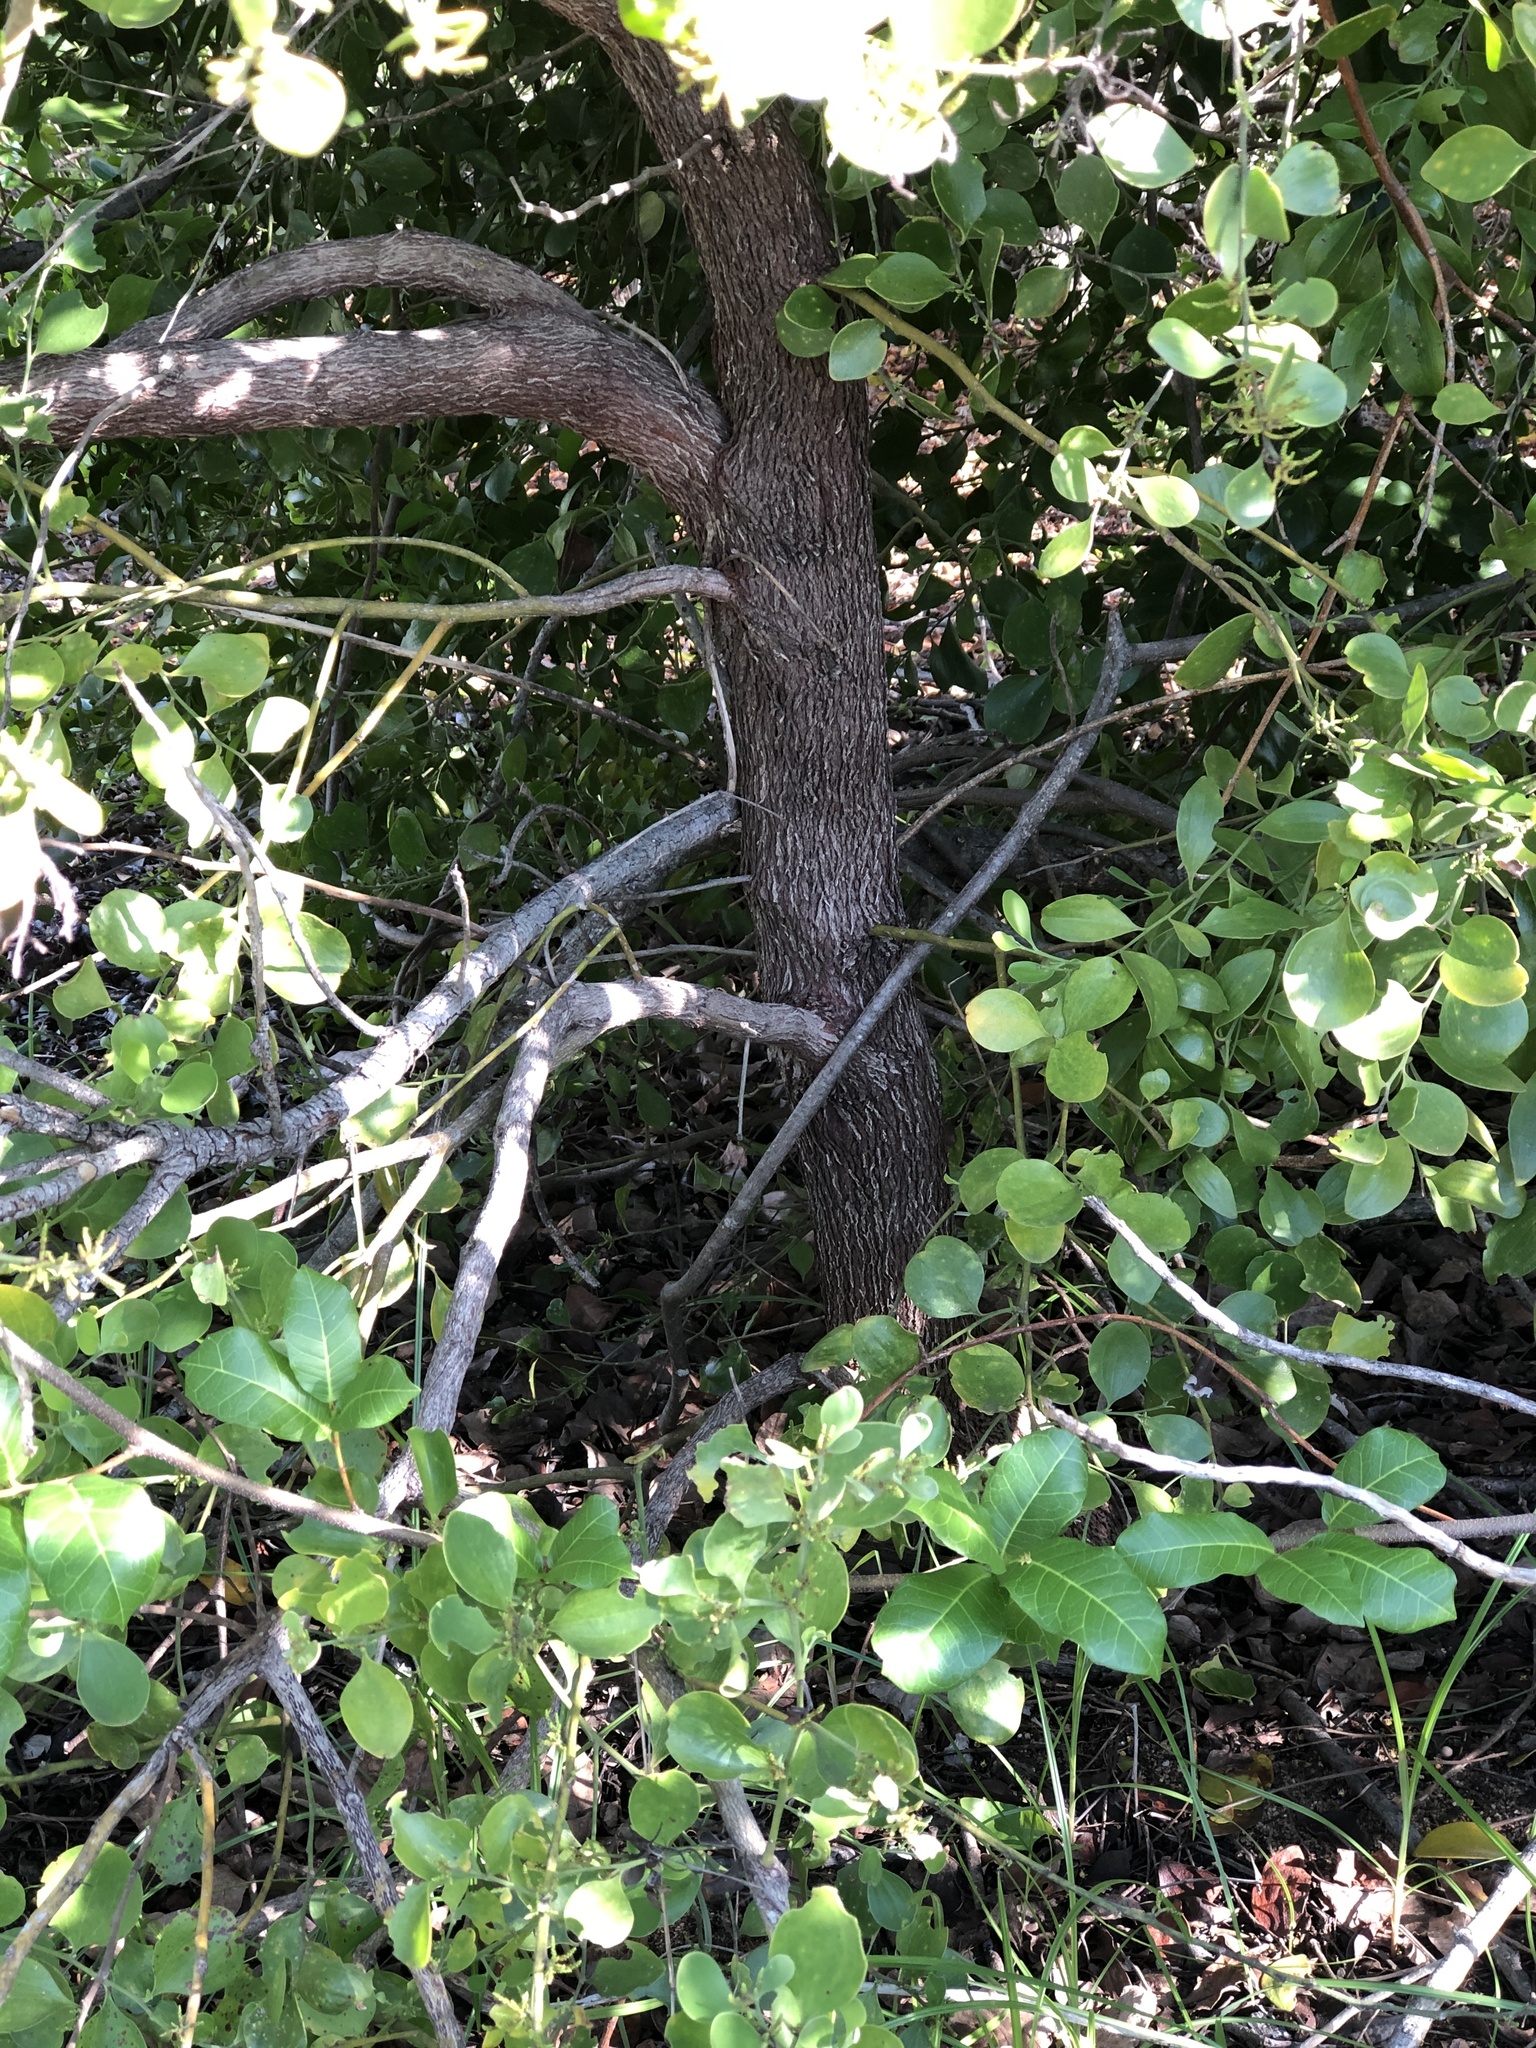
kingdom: Plantae
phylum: Tracheophyta
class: Magnoliopsida
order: Santalales
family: Santalaceae
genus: Exocarpos
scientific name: Exocarpos latifolius
